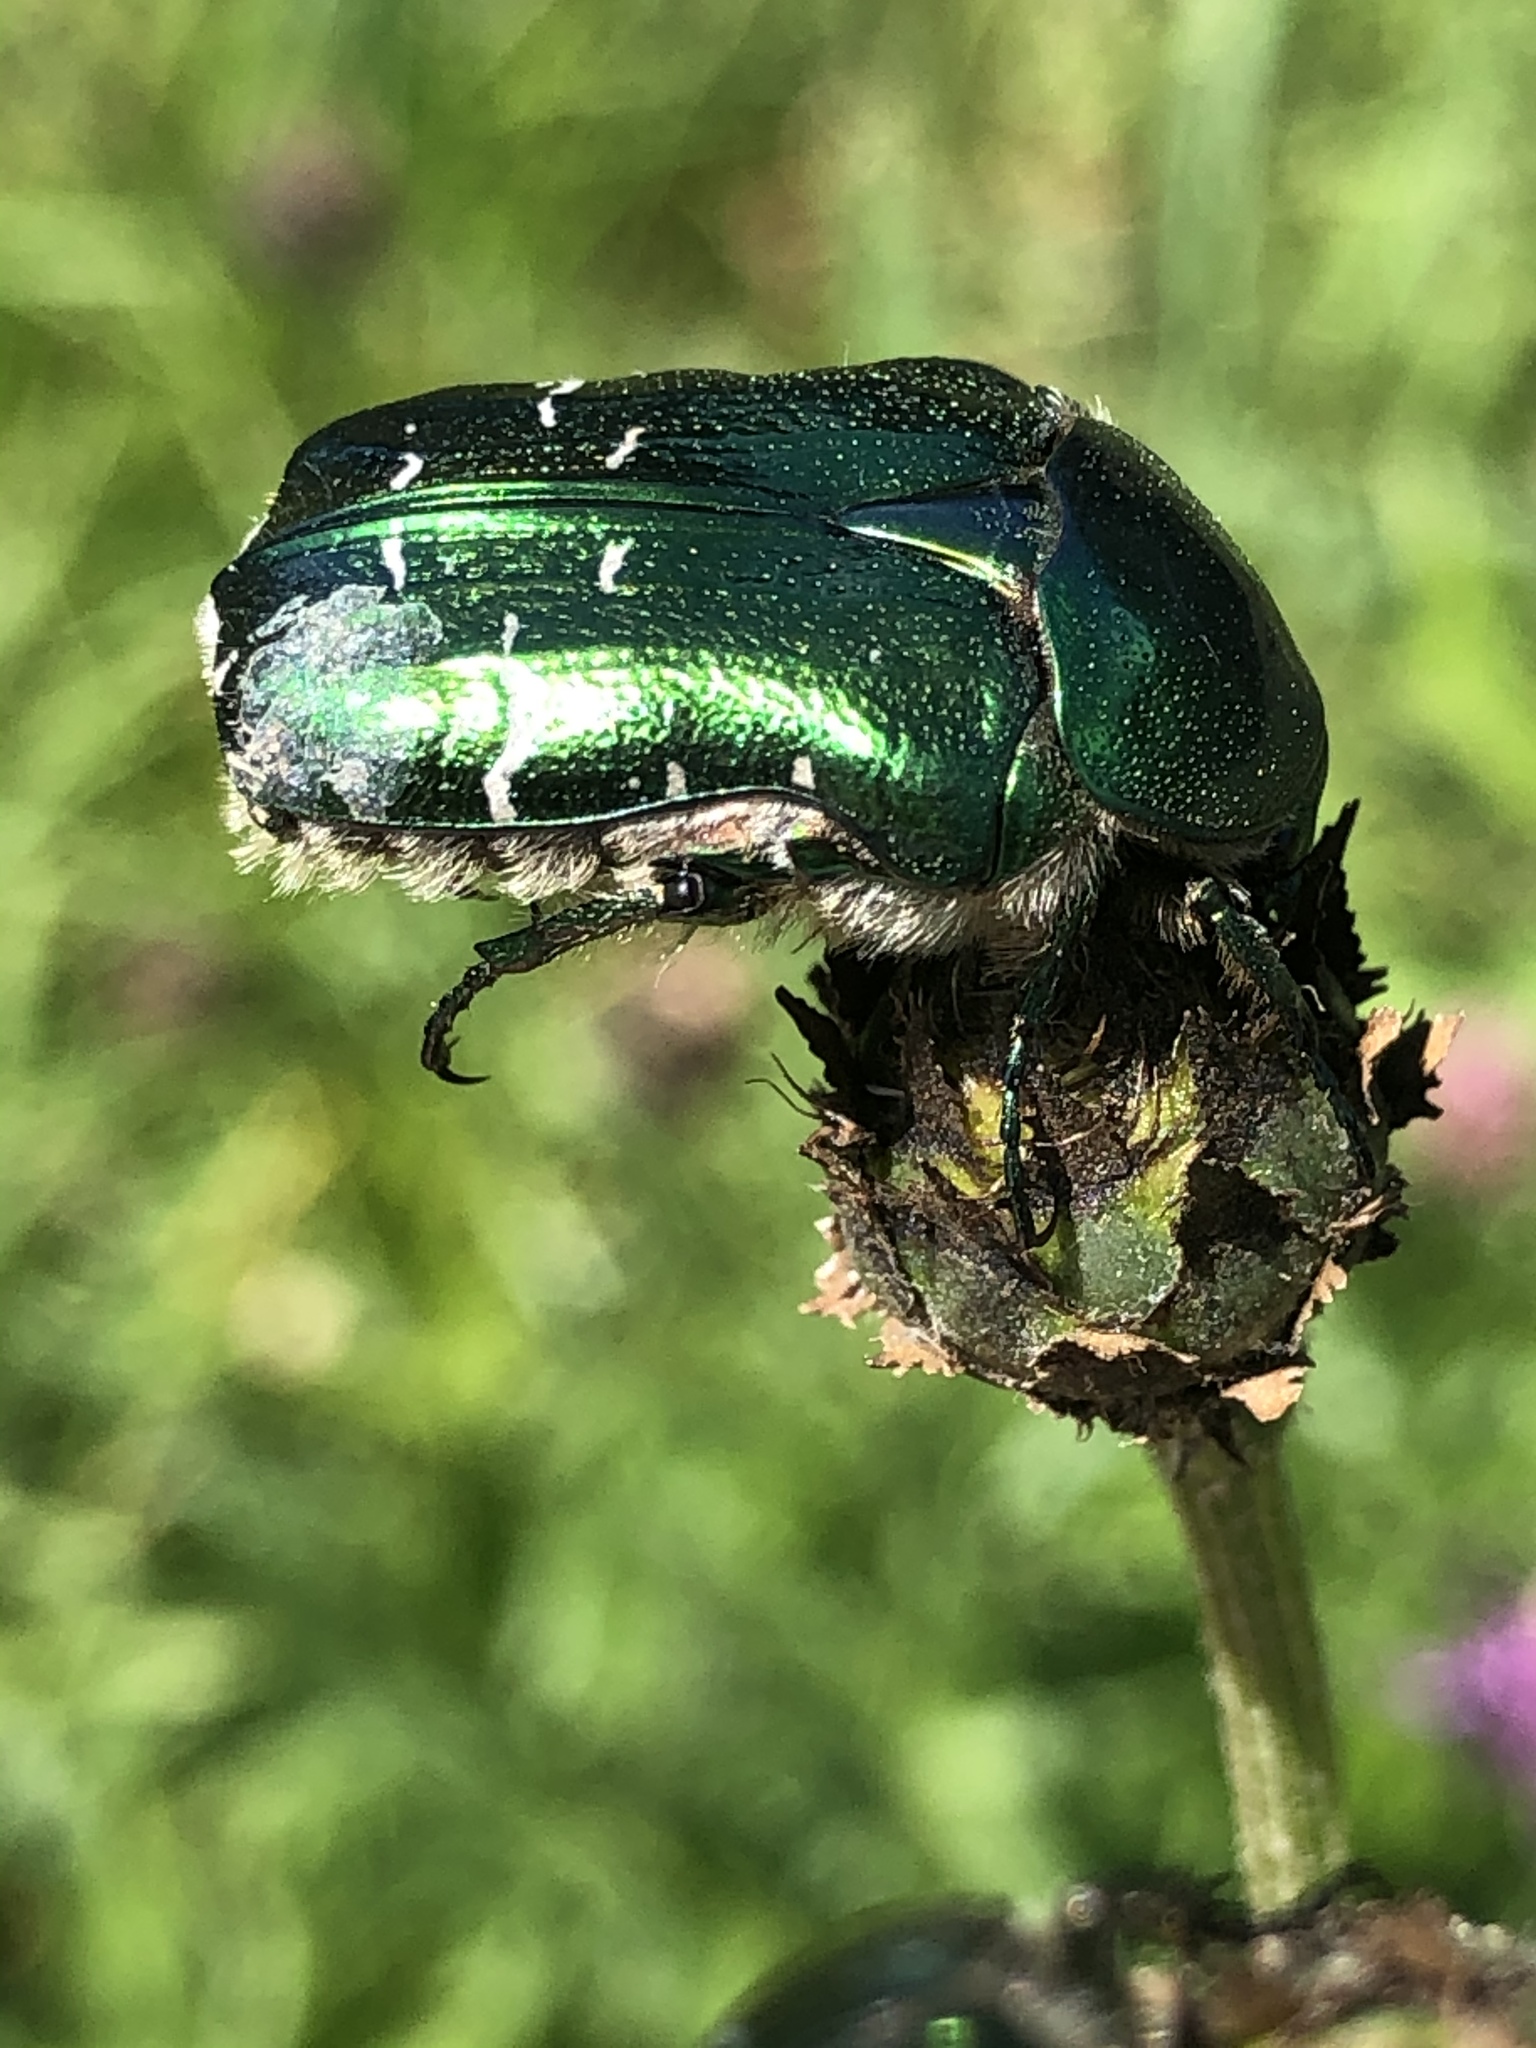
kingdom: Animalia
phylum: Arthropoda
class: Insecta
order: Coleoptera
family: Scarabaeidae
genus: Cetonia
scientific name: Cetonia aurata
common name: Rose chafer
